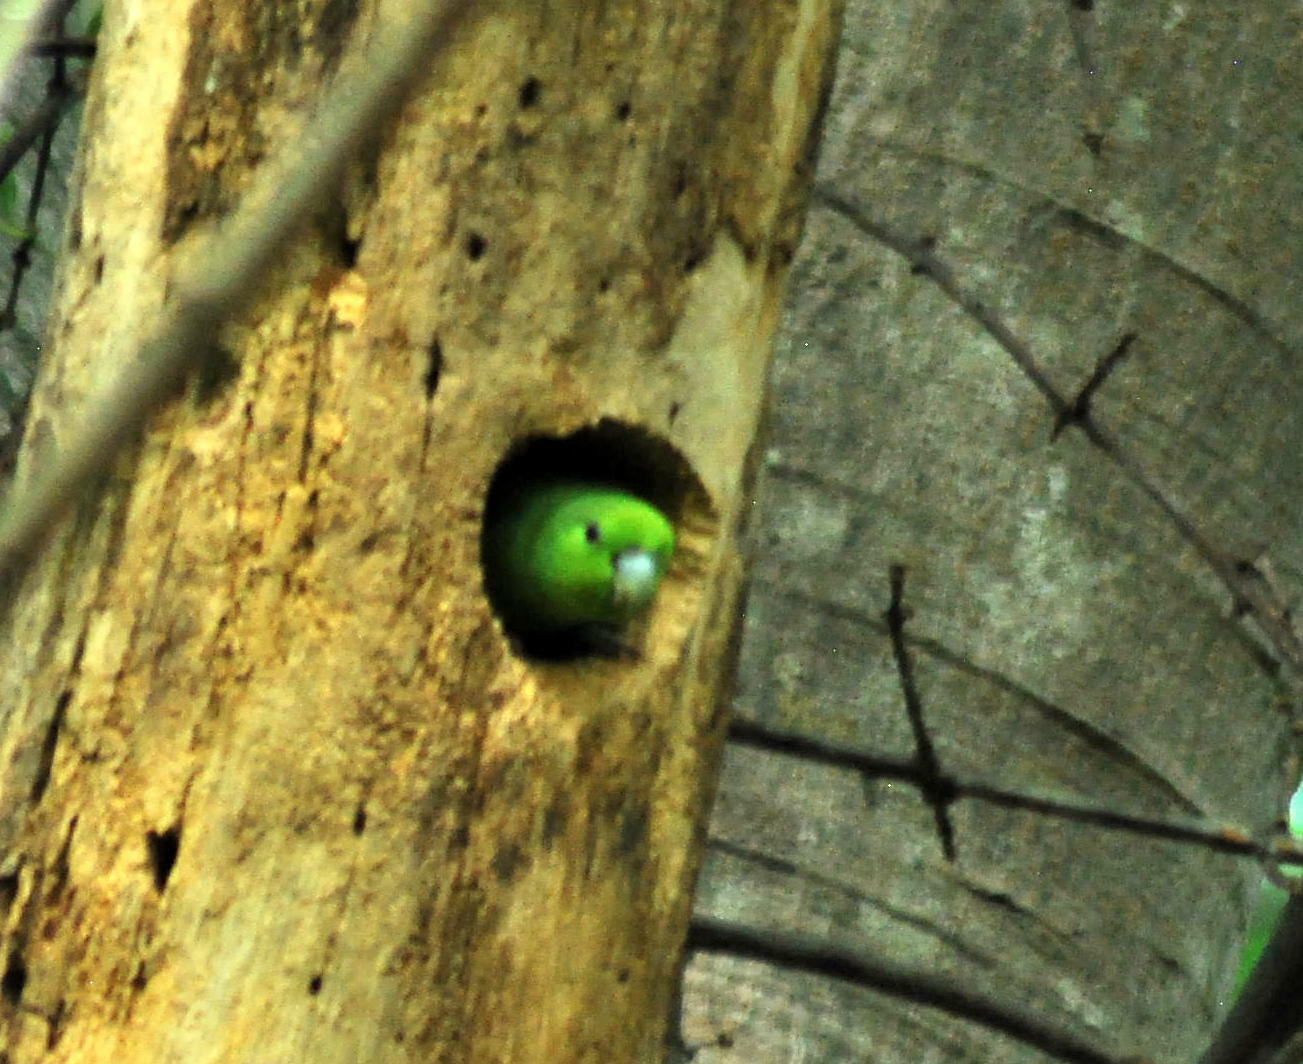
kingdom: Animalia
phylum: Chordata
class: Aves
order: Psittaciformes
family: Psittacidae
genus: Forpus
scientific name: Forpus cyanopygius
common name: Mexican parrotlet
